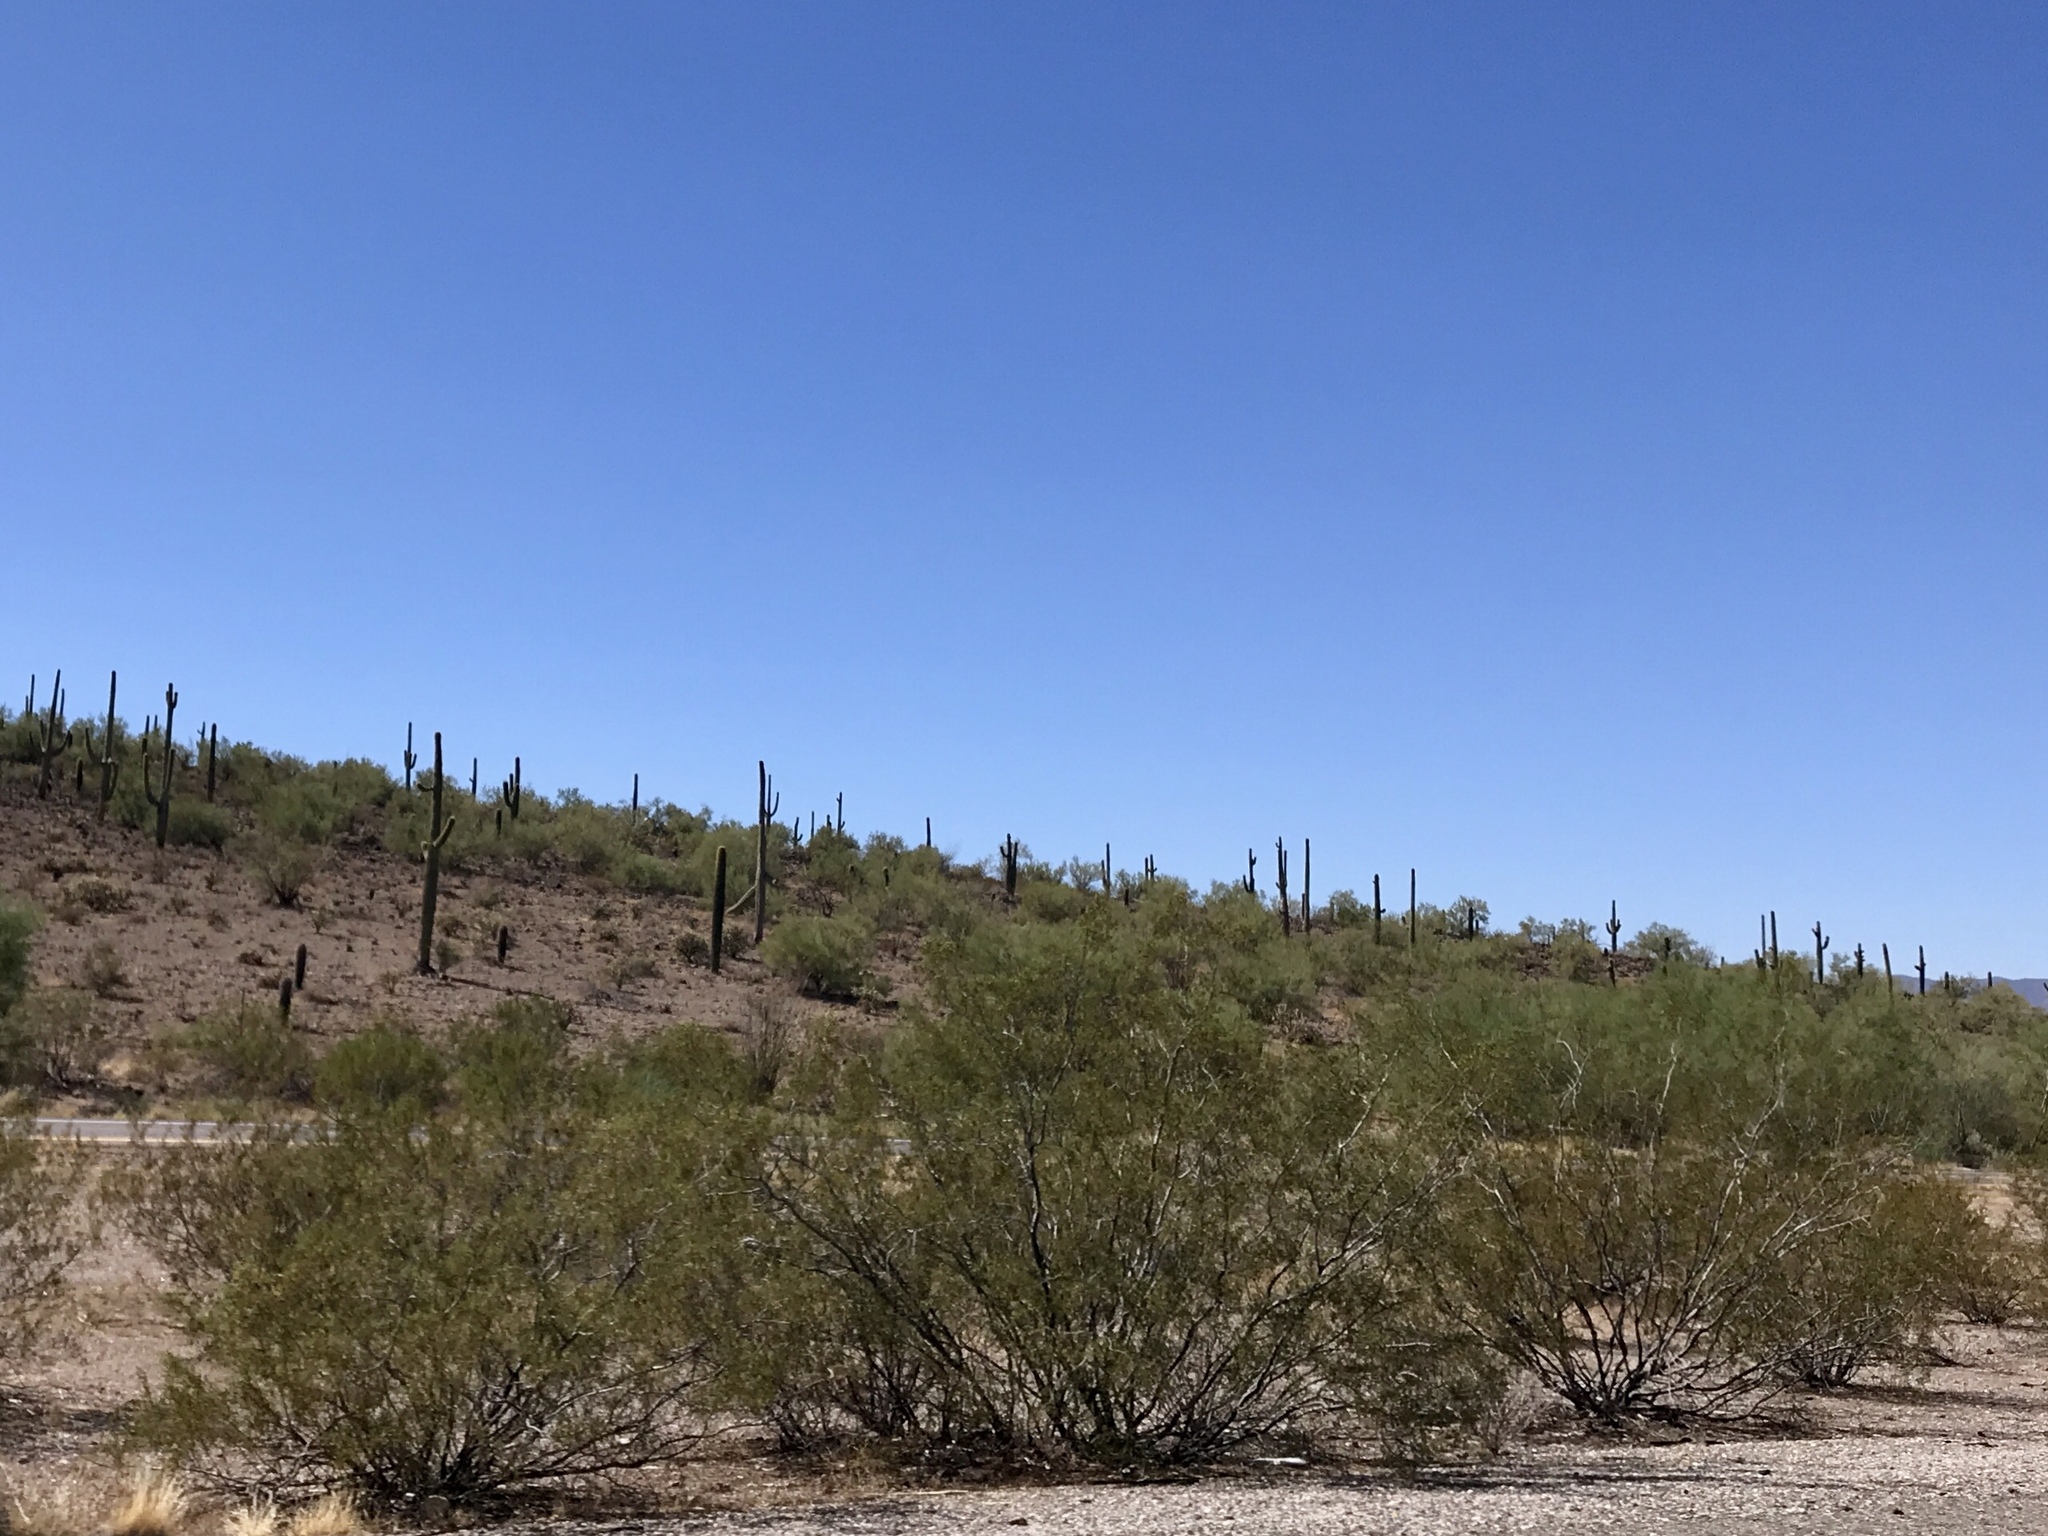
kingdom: Plantae
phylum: Tracheophyta
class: Magnoliopsida
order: Zygophyllales
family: Zygophyllaceae
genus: Larrea
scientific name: Larrea tridentata
